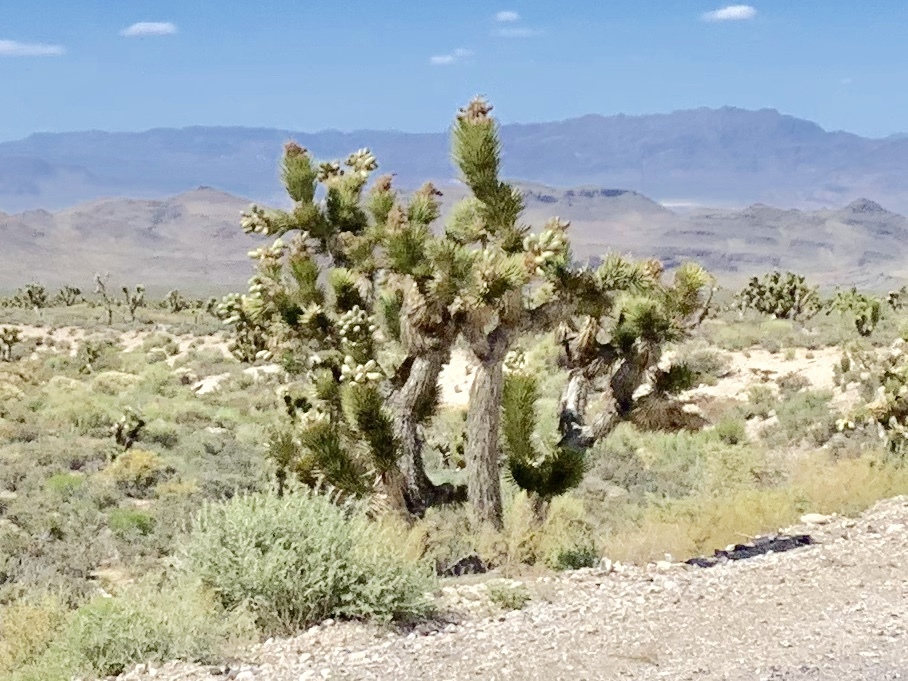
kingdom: Plantae
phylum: Tracheophyta
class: Liliopsida
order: Asparagales
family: Asparagaceae
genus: Yucca
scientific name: Yucca brevifolia
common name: Joshua tree
